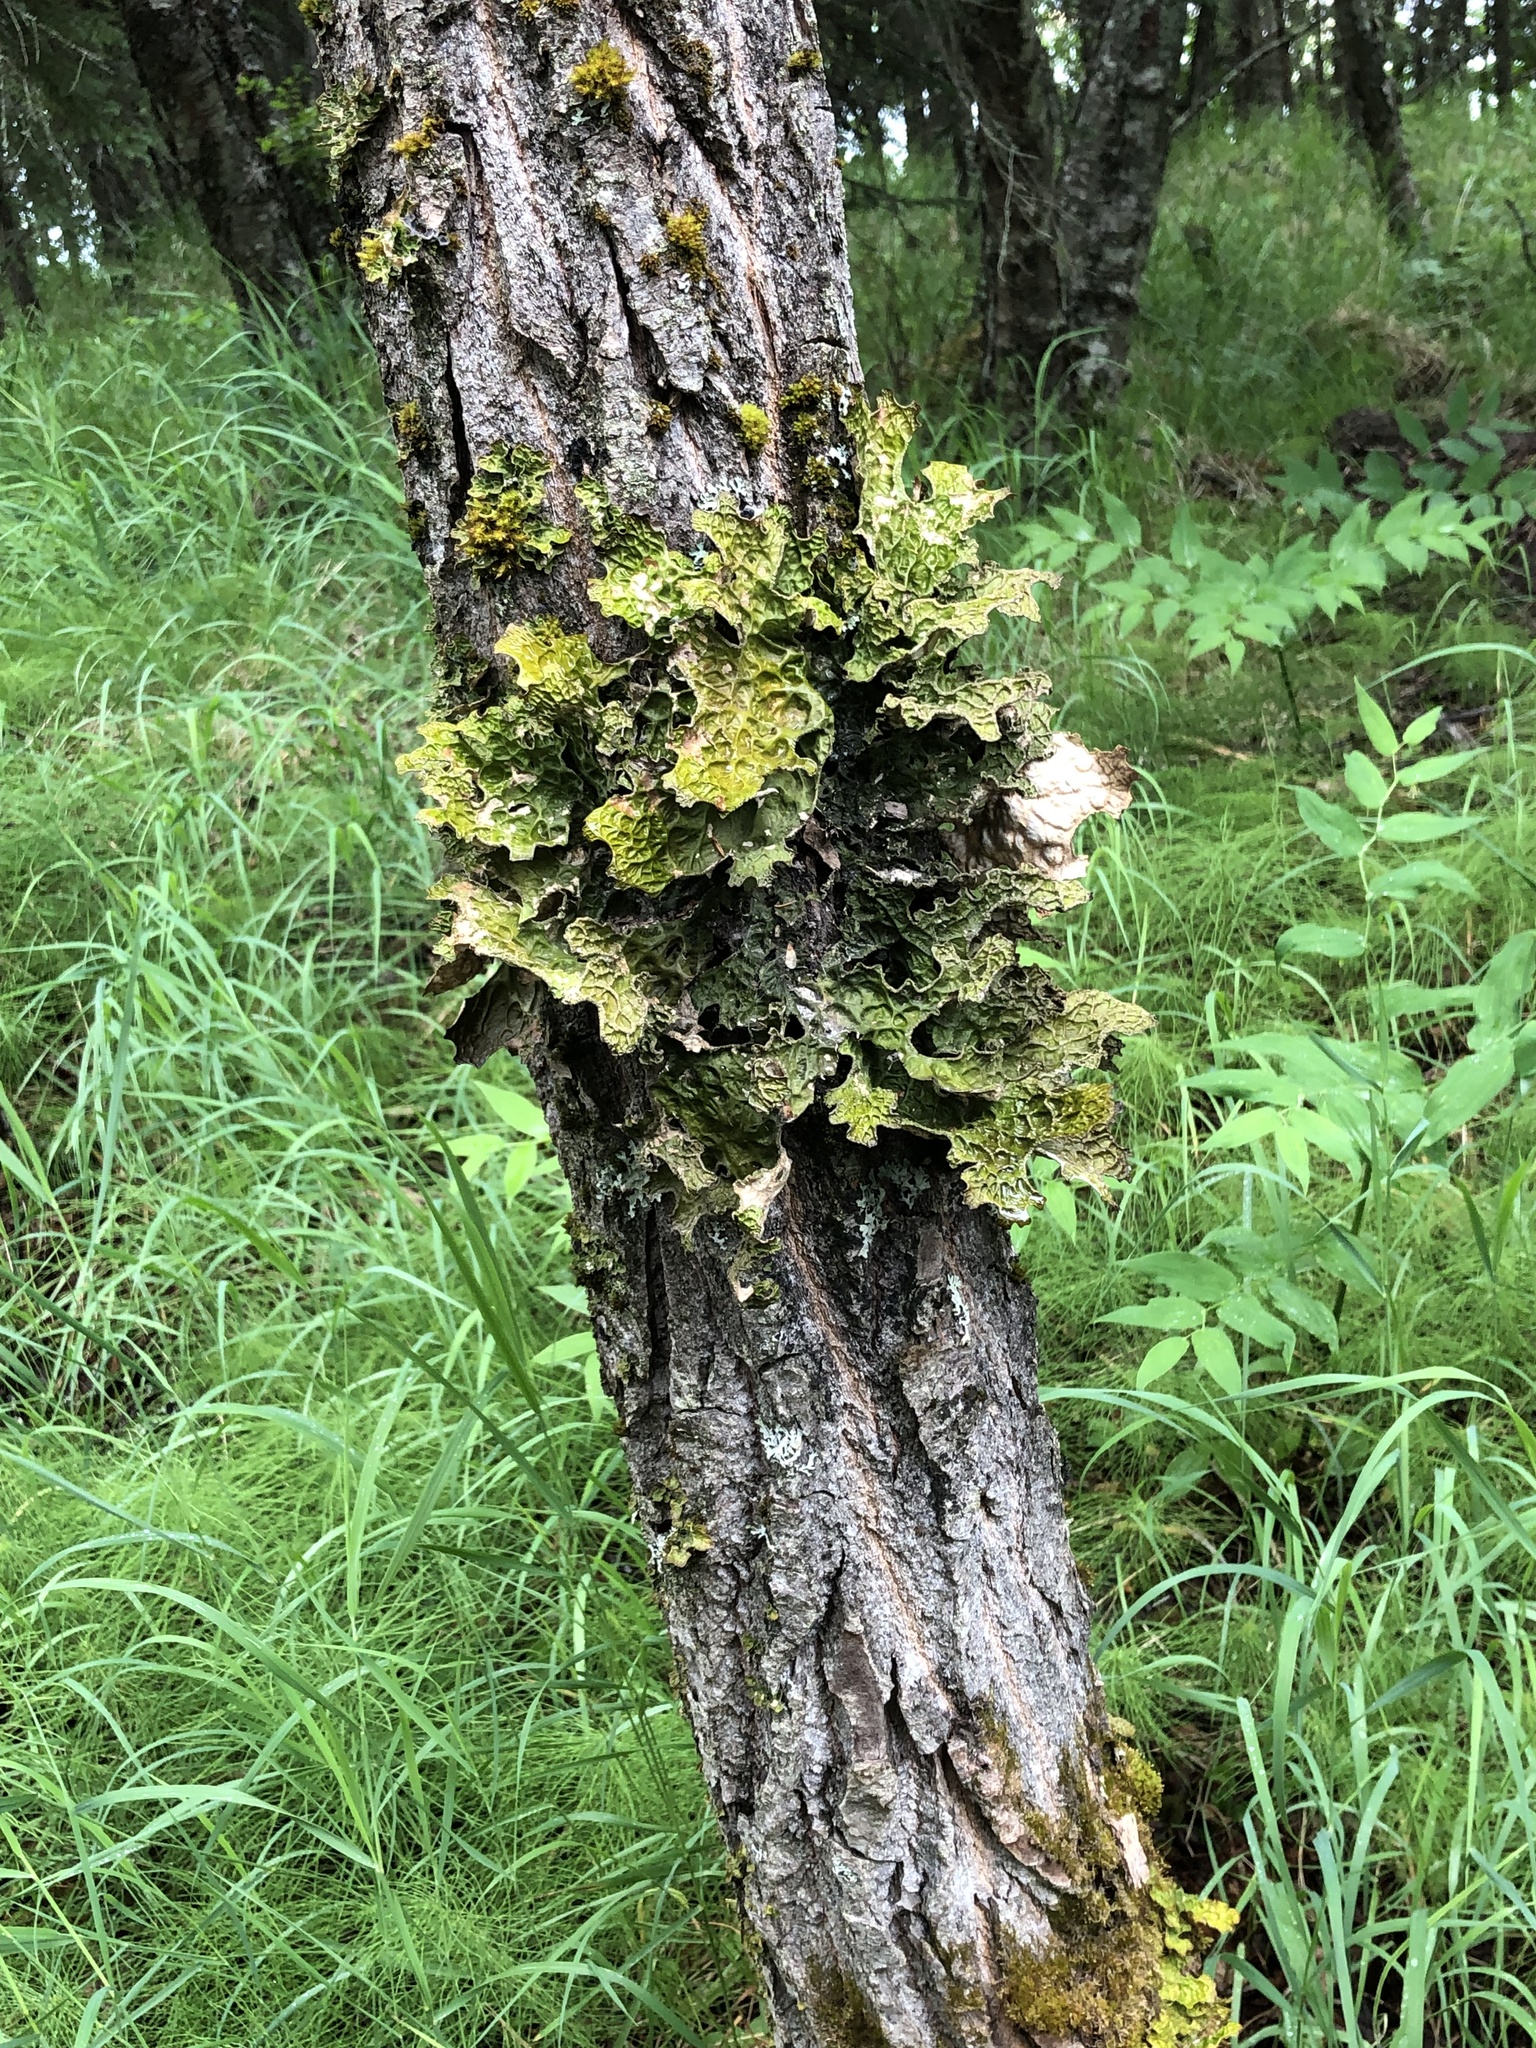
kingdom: Fungi
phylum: Ascomycota
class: Lecanoromycetes
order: Peltigerales
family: Lobariaceae
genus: Lobaria
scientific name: Lobaria pulmonaria
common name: Lungwort
